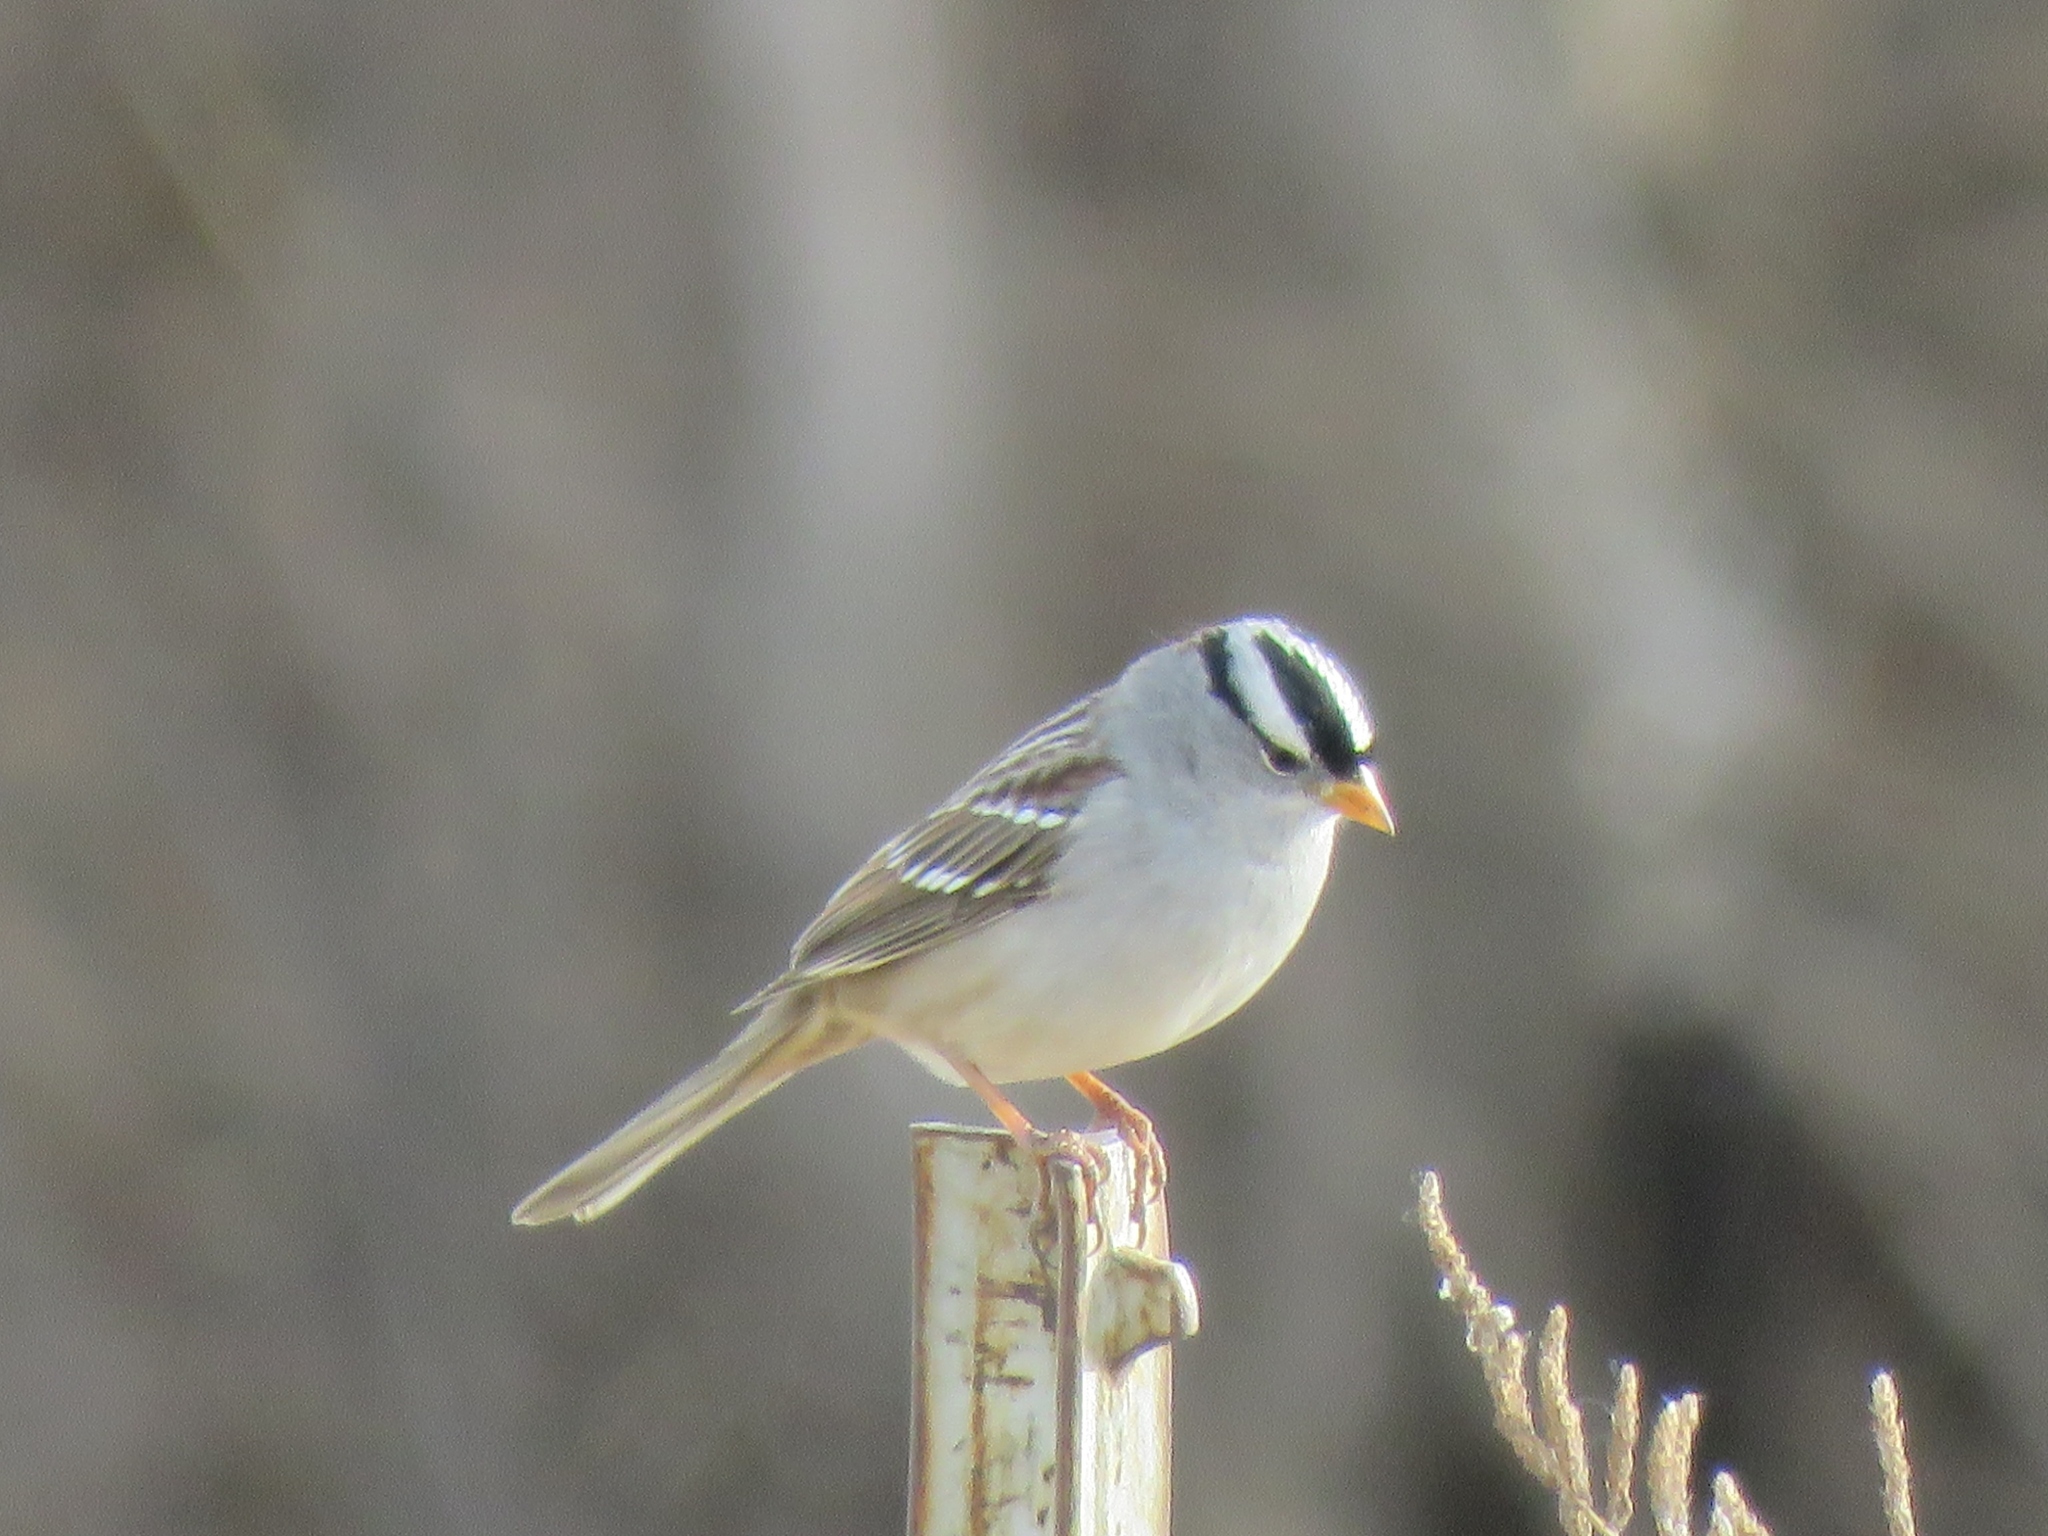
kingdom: Animalia
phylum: Chordata
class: Aves
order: Passeriformes
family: Passerellidae
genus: Zonotrichia
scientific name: Zonotrichia leucophrys
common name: White-crowned sparrow
